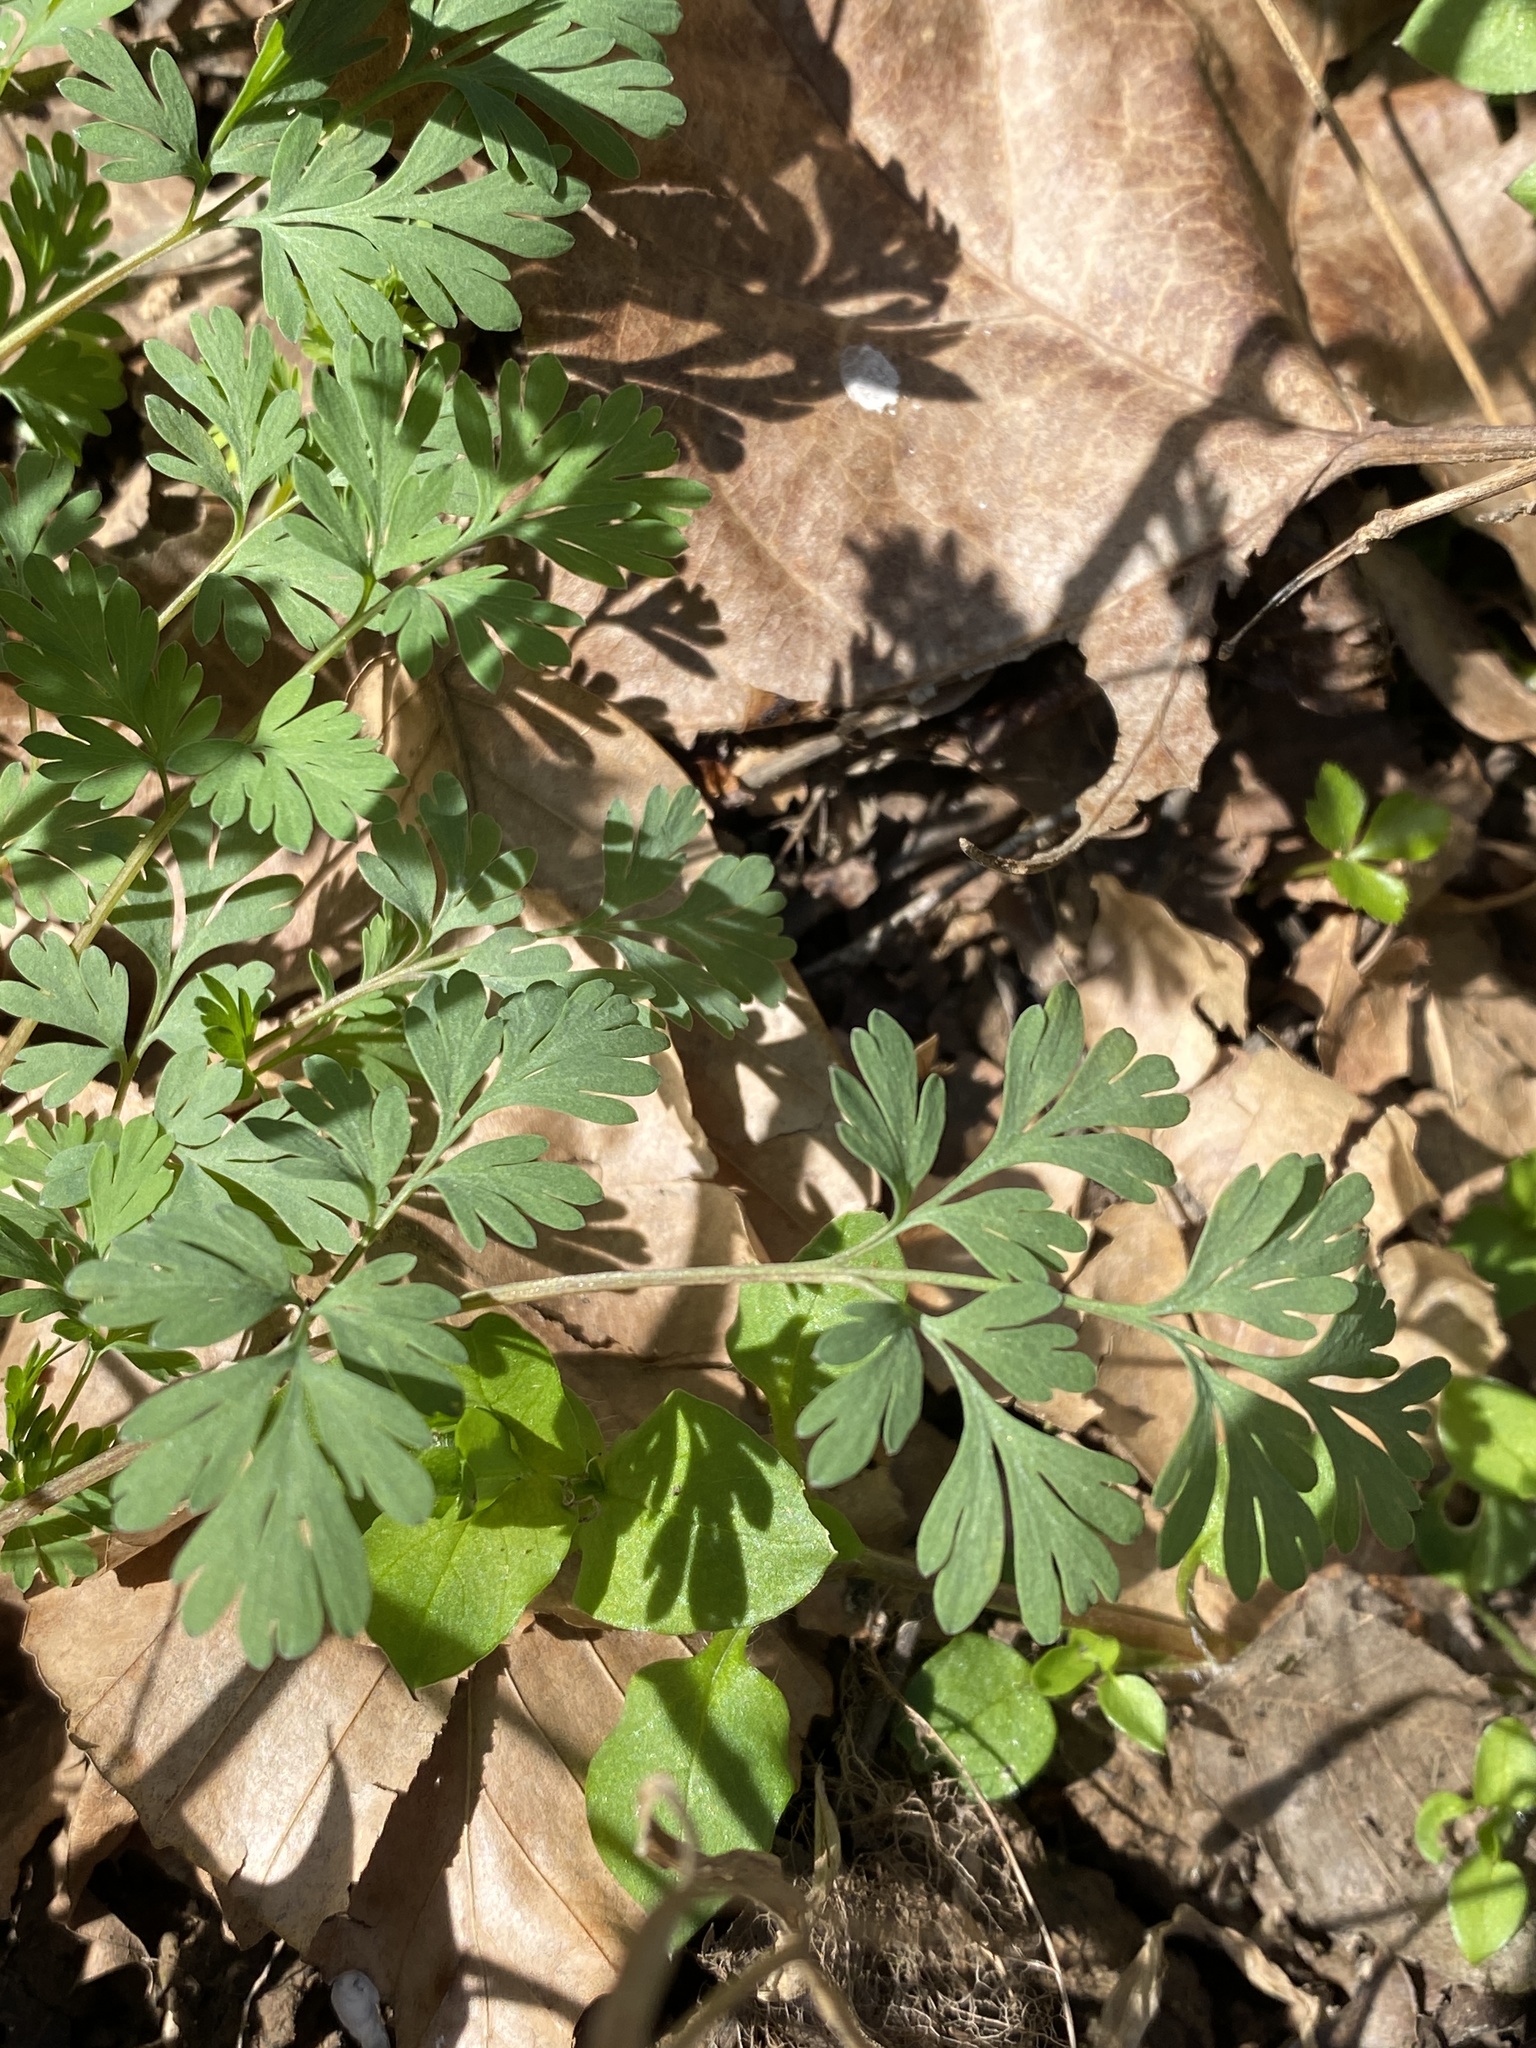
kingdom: Plantae
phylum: Tracheophyta
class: Magnoliopsida
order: Ranunculales
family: Papaveraceae
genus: Corydalis
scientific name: Corydalis flavula
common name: Yellow corydalis
